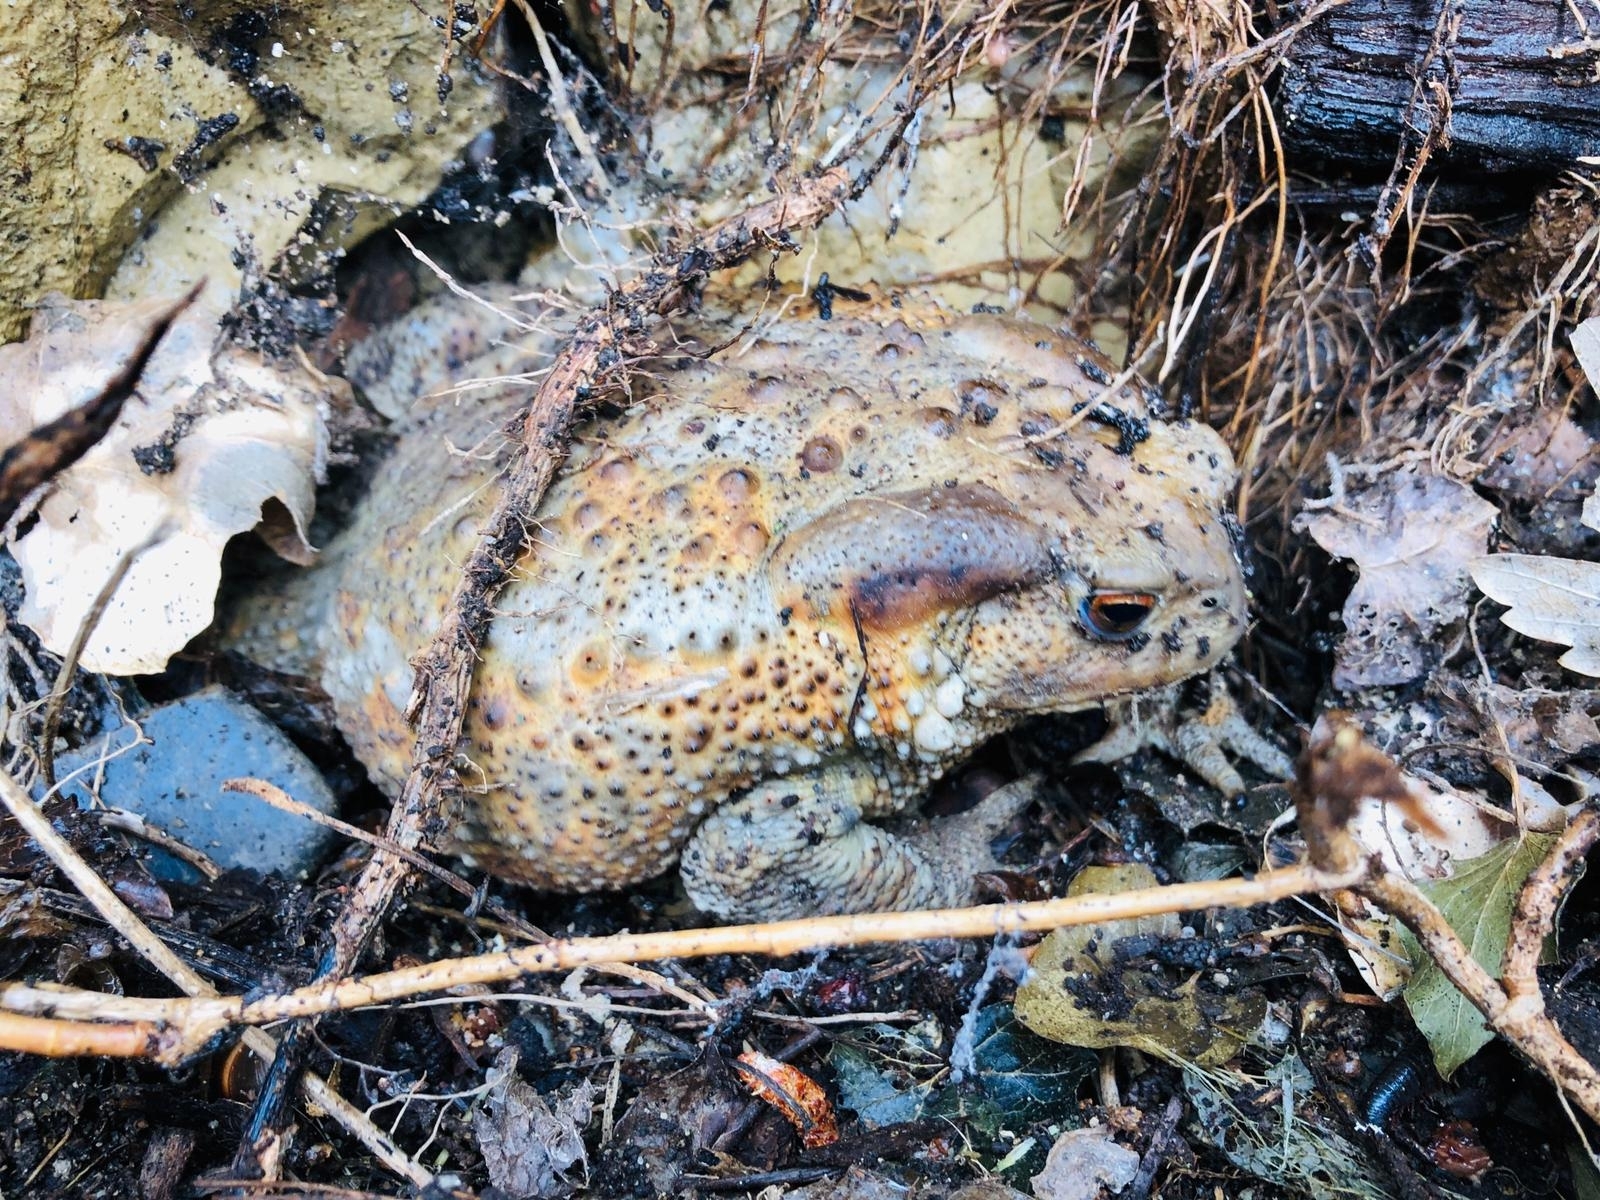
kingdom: Animalia
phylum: Chordata
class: Amphibia
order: Anura
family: Bufonidae
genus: Bufo
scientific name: Bufo bufo
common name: Common toad
